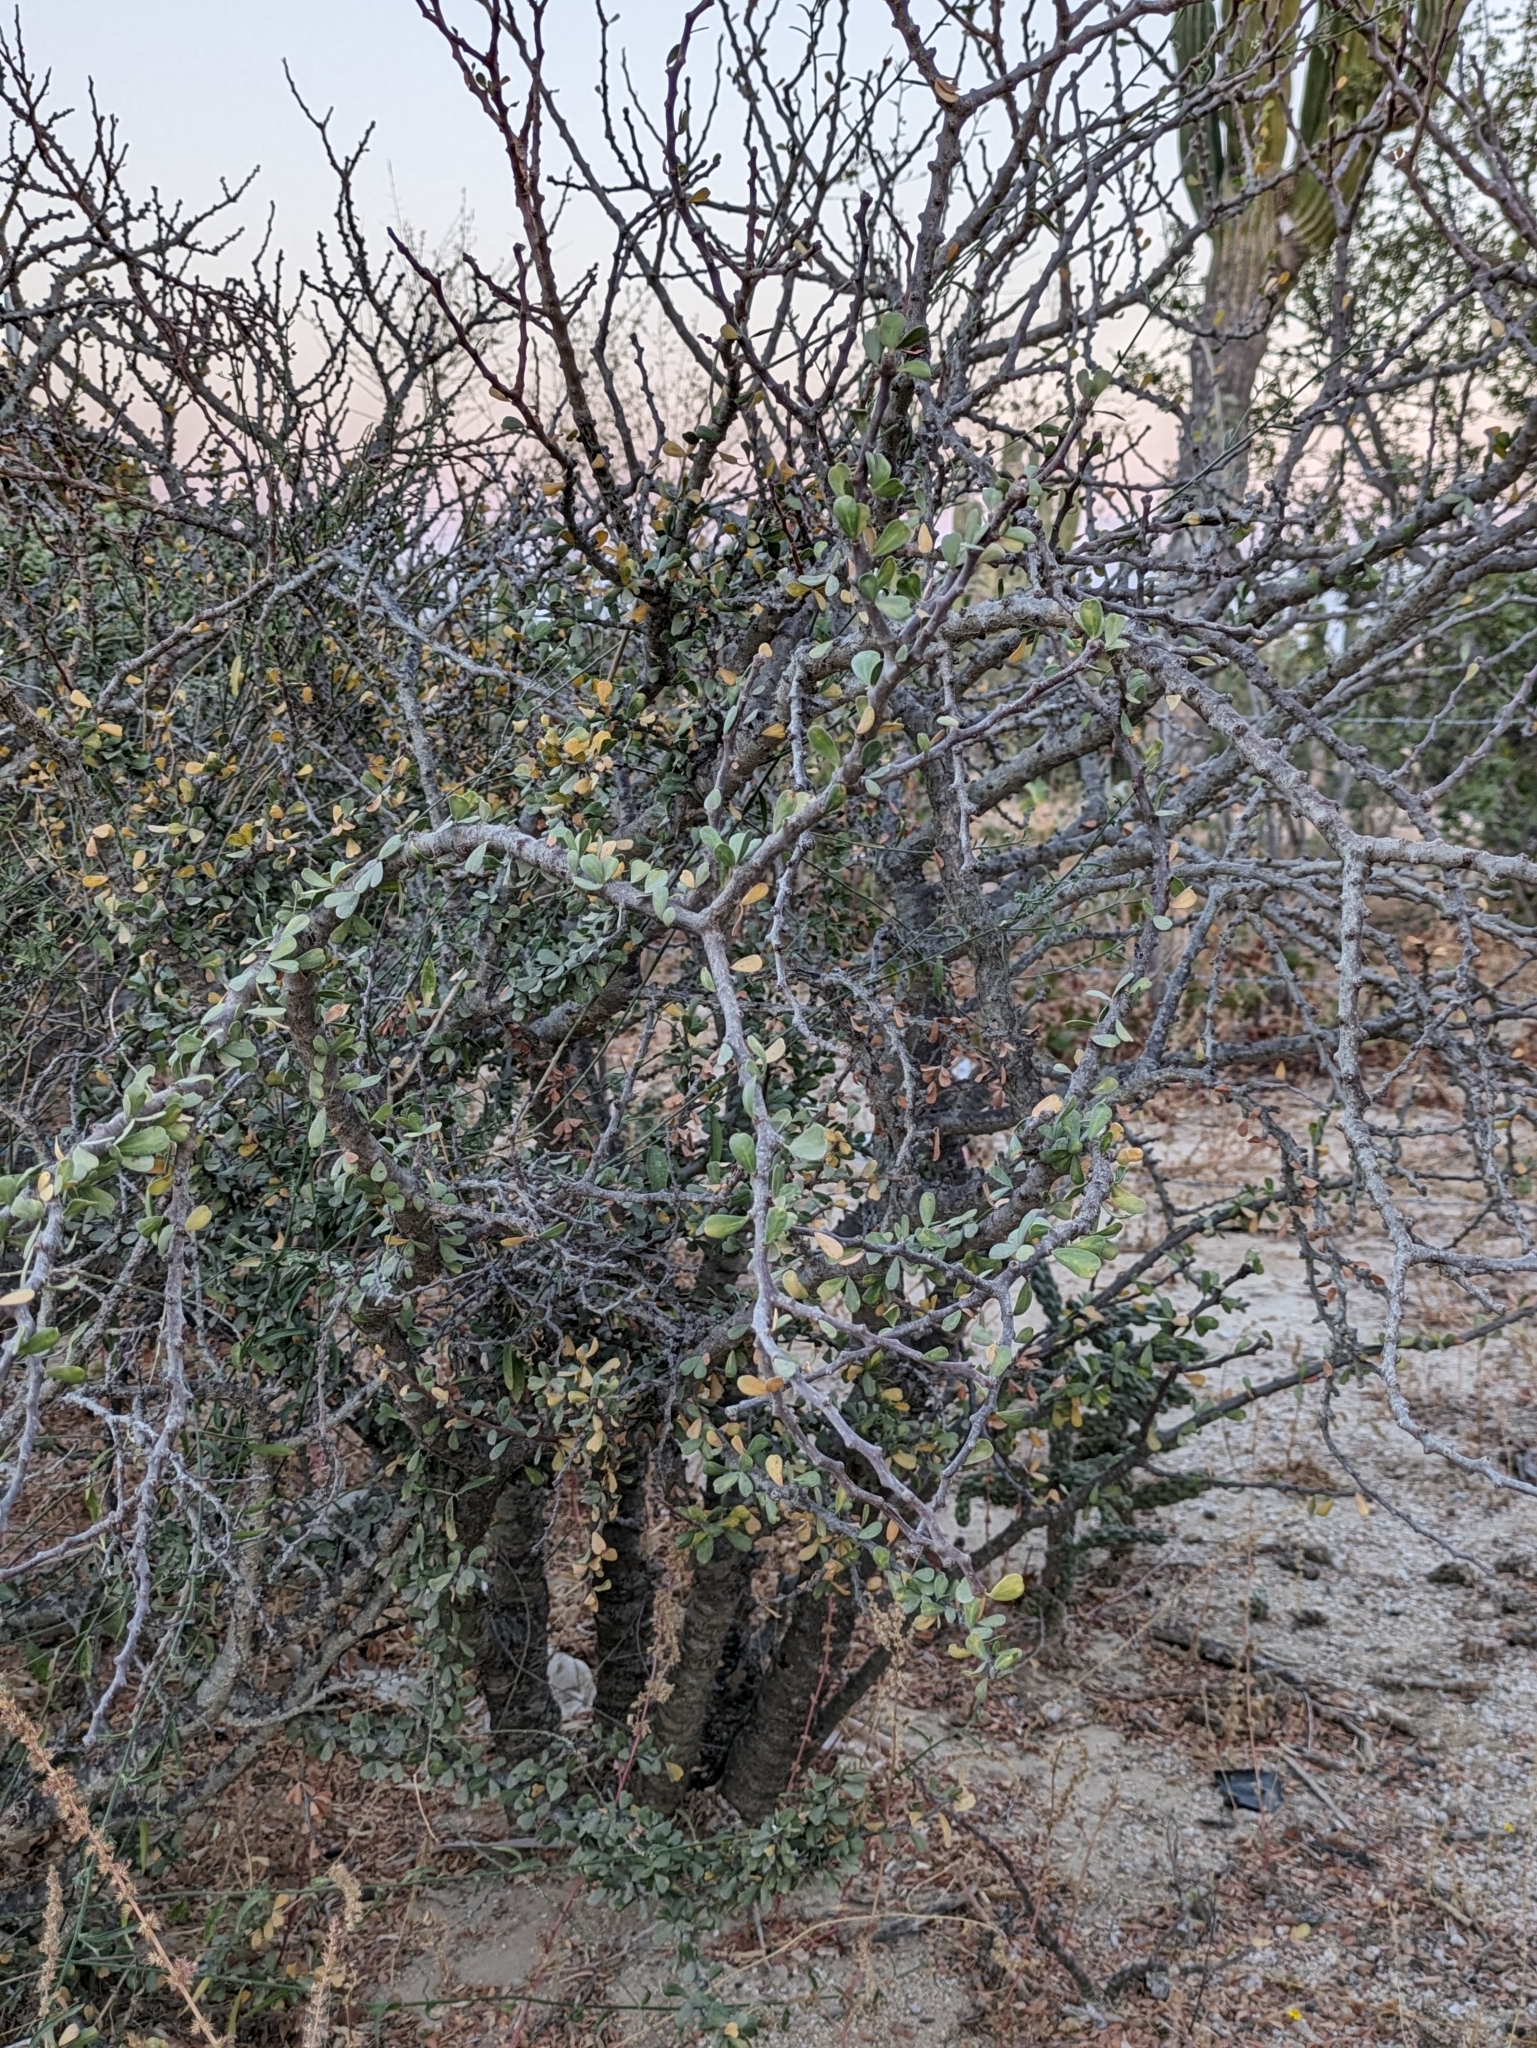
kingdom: Plantae
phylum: Tracheophyta
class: Magnoliopsida
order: Malpighiales
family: Euphorbiaceae
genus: Jatropha
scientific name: Jatropha cuneata
